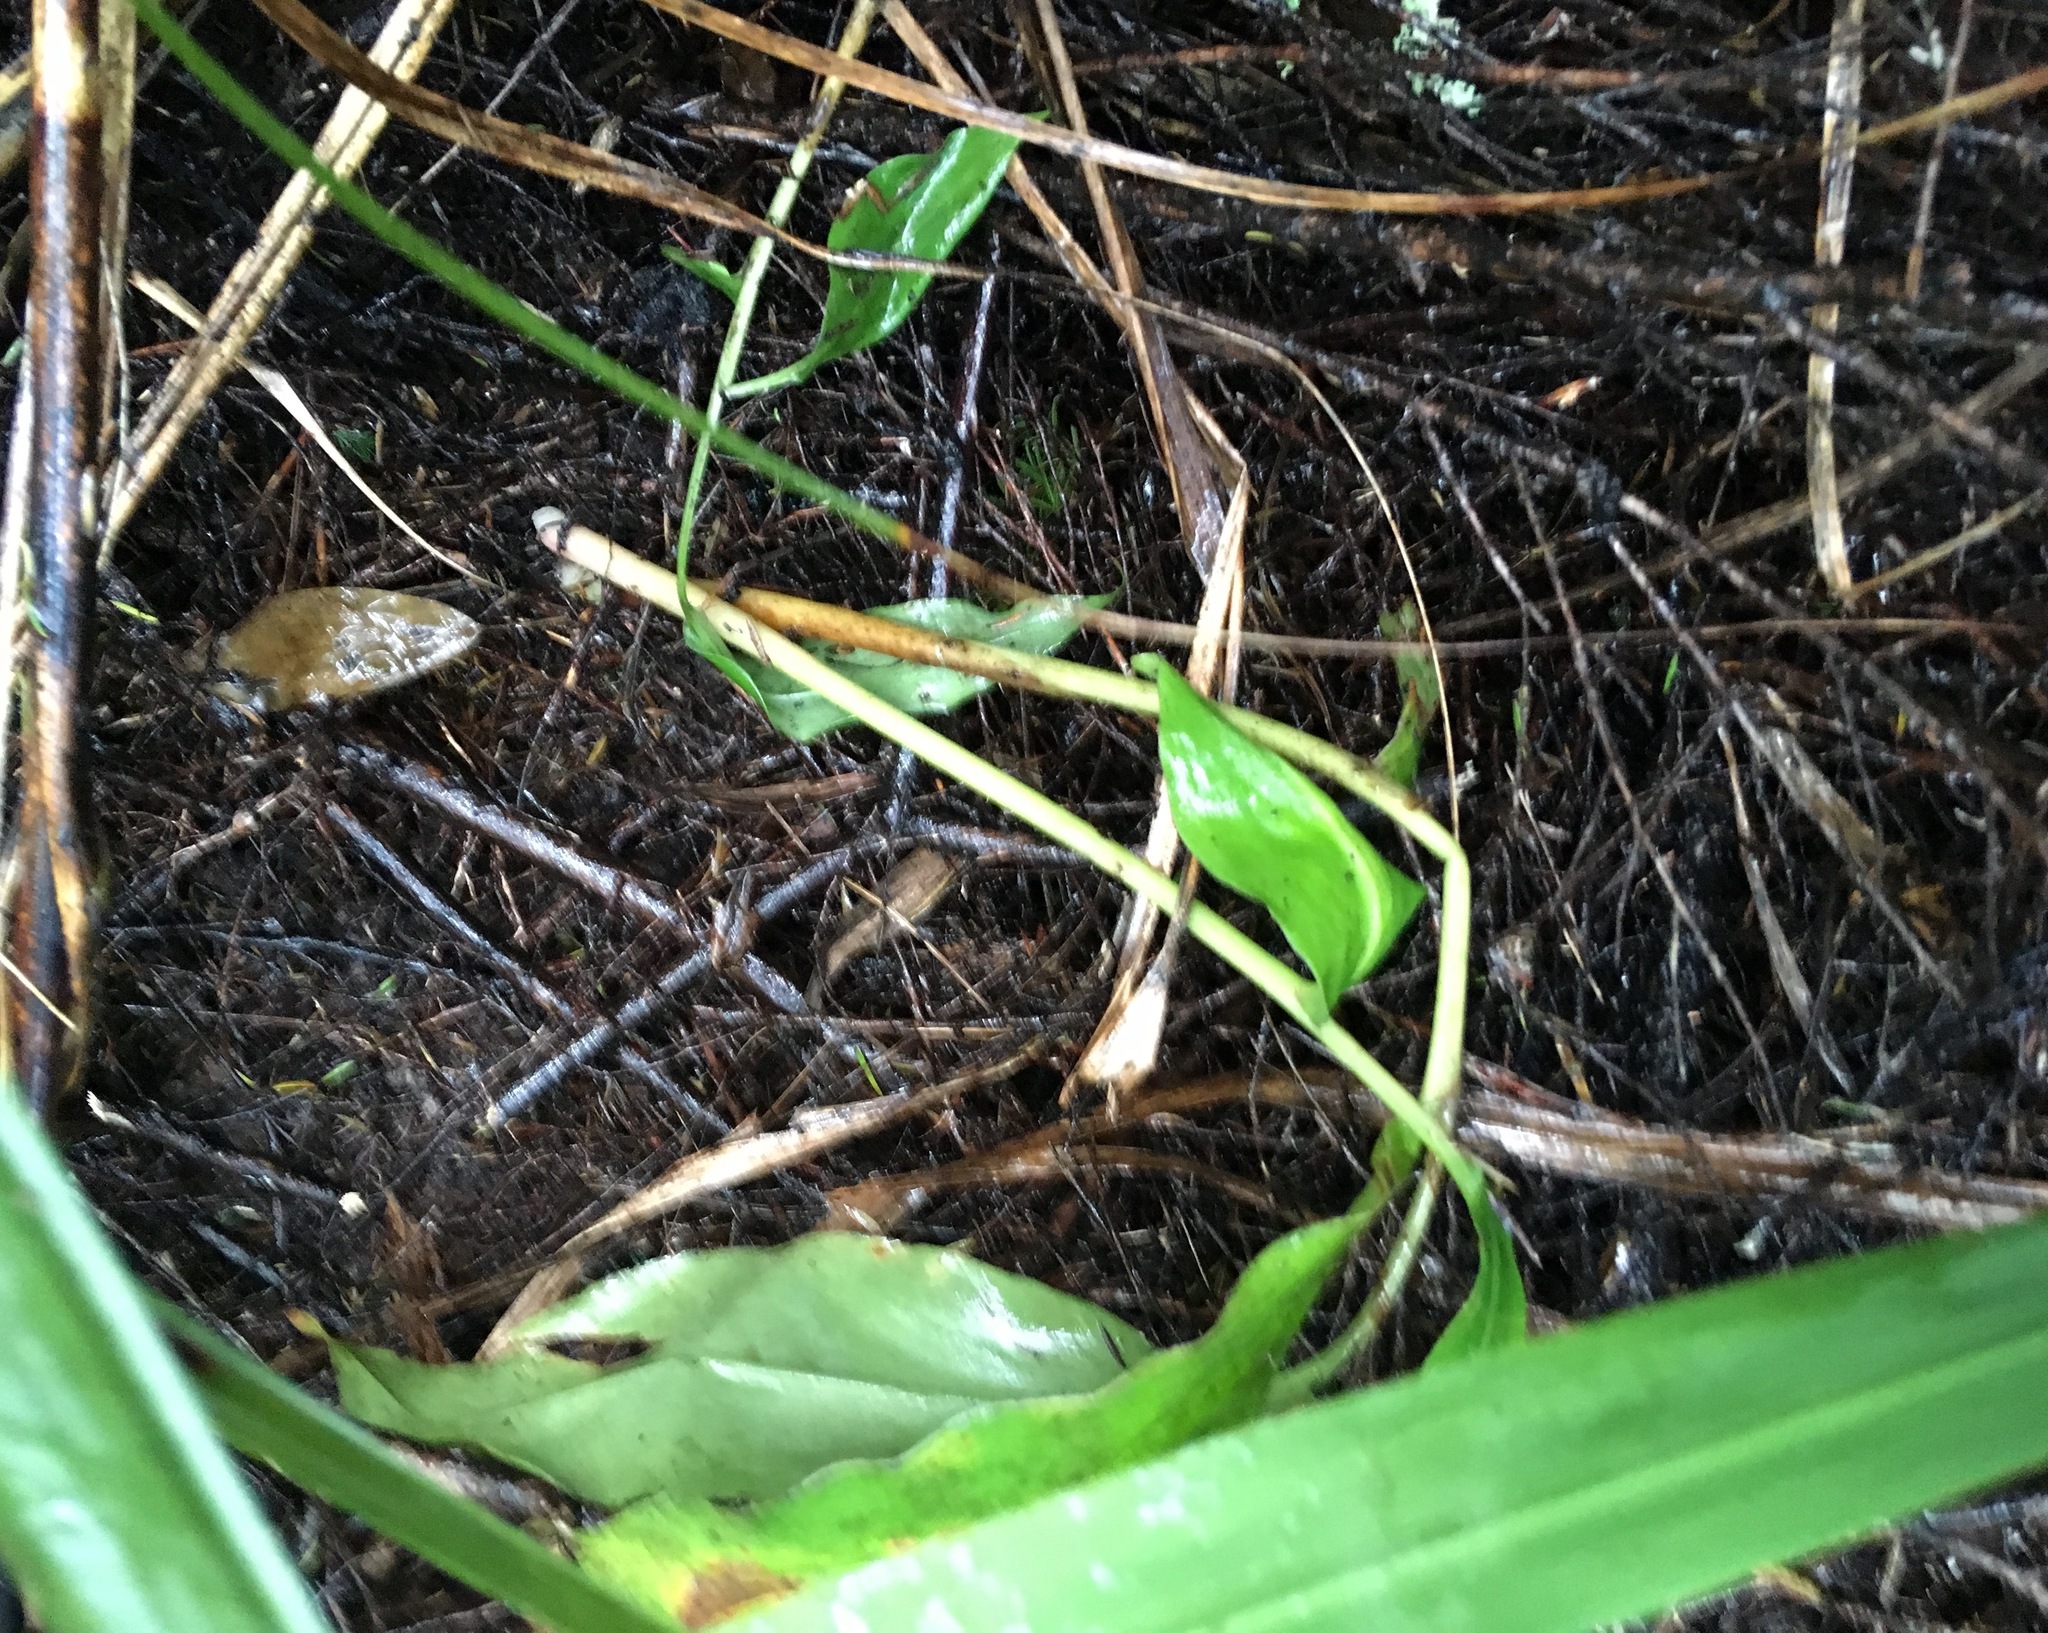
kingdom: Plantae
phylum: Tracheophyta
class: Liliopsida
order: Zingiberales
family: Zingiberaceae
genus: Hedychium
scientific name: Hedychium gardnerianum
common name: Himalayan ginger
